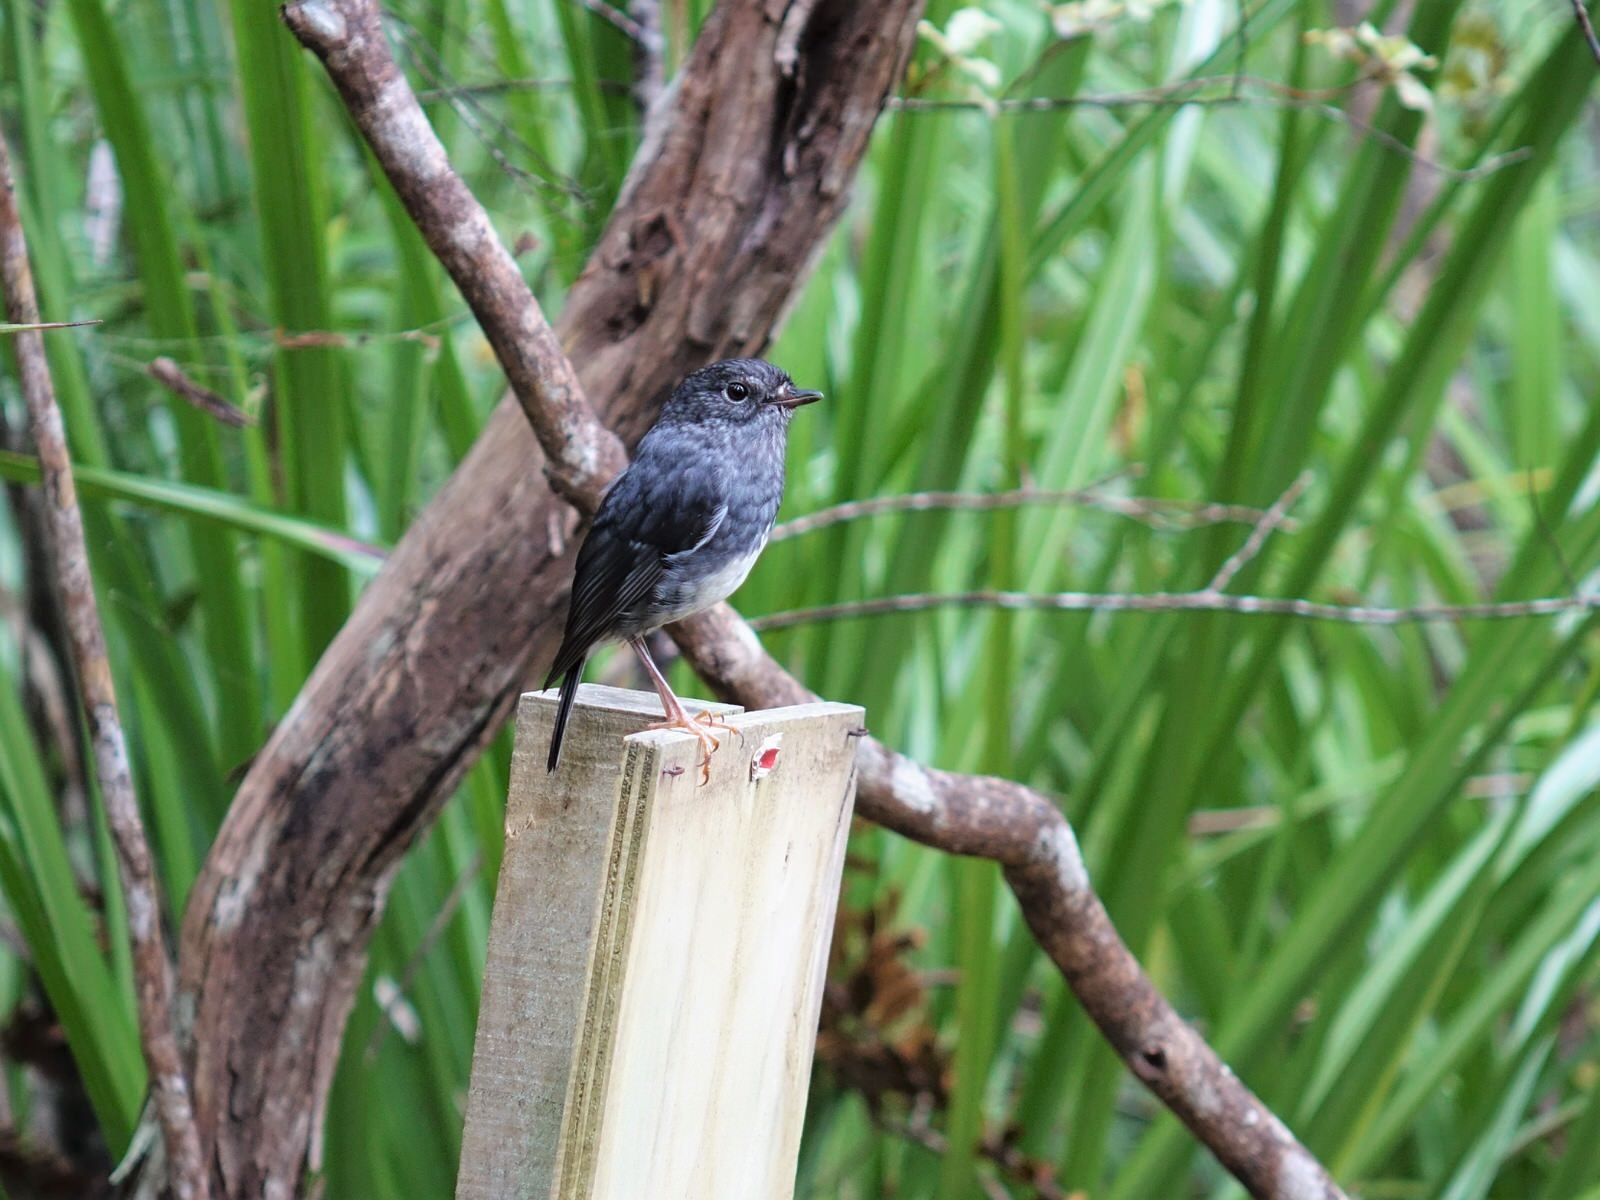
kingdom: Animalia
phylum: Chordata
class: Aves
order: Passeriformes
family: Petroicidae
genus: Petroica
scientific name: Petroica australis
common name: New zealand robin
